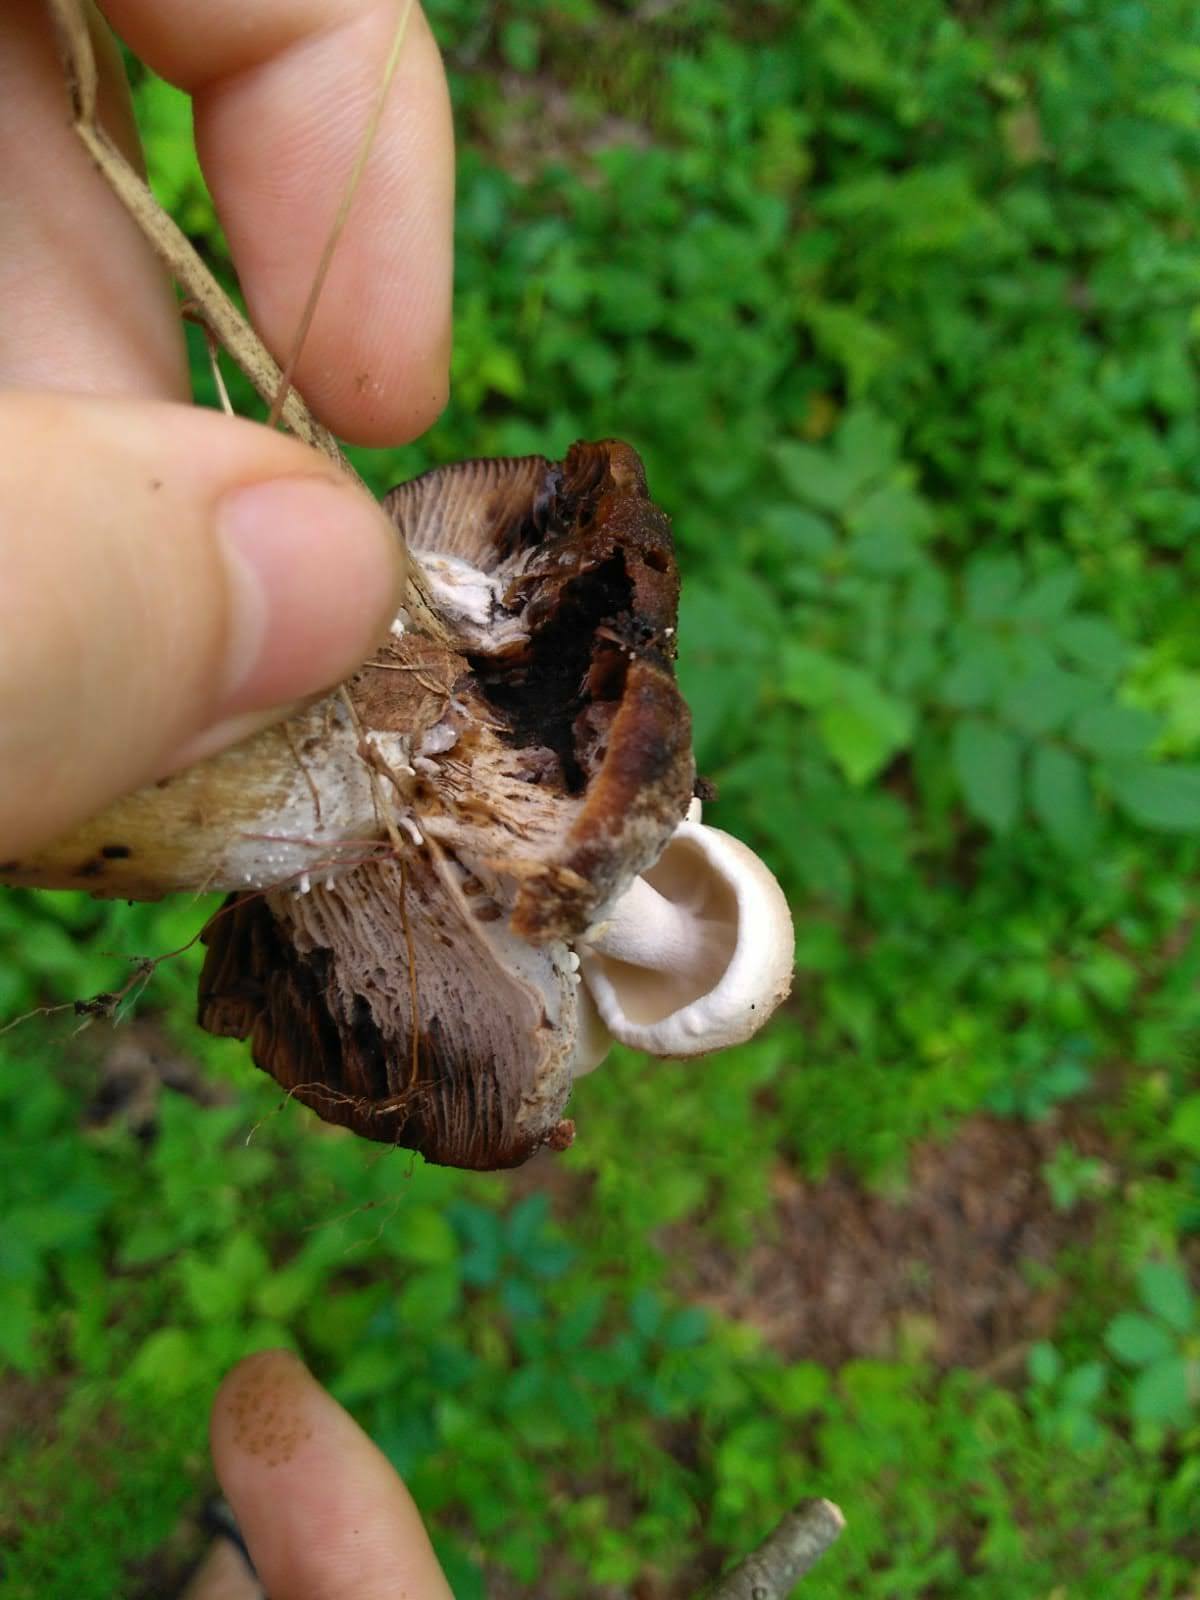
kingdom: Fungi
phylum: Basidiomycota
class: Agaricomycetes
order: Agaricales
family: Lyophyllaceae
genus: Asterophora
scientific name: Asterophora lycoperdoides
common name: Pick-a-back toadstool
